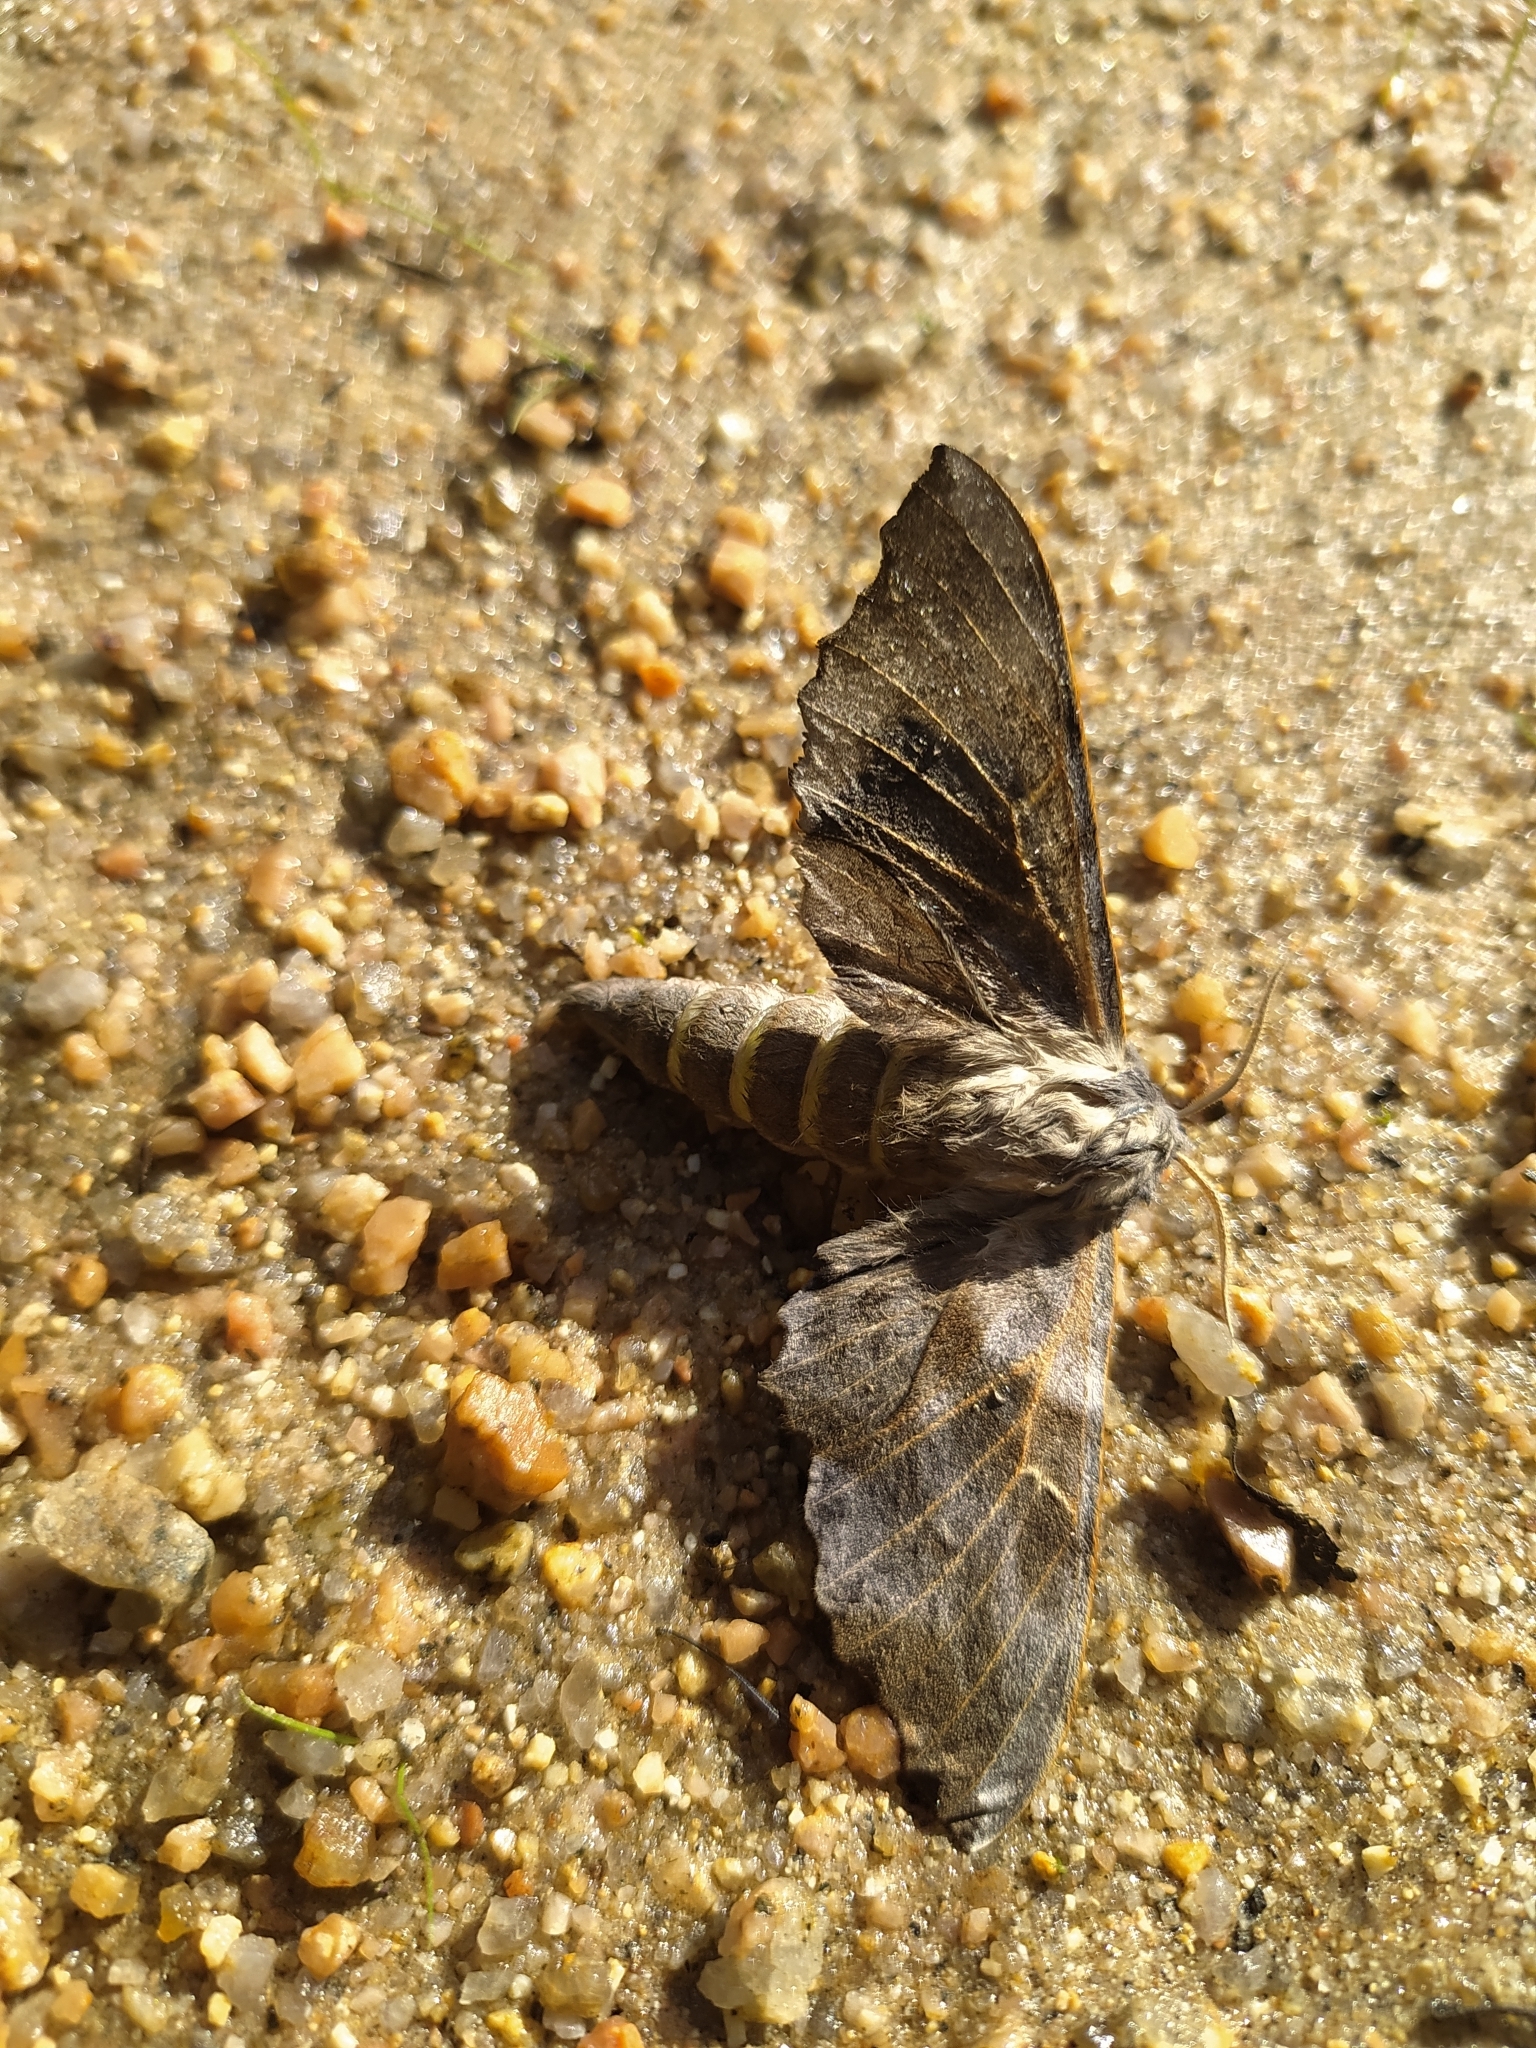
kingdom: Animalia
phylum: Arthropoda
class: Insecta
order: Lepidoptera
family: Sphingidae
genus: Laothoe
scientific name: Laothoe amurensis
